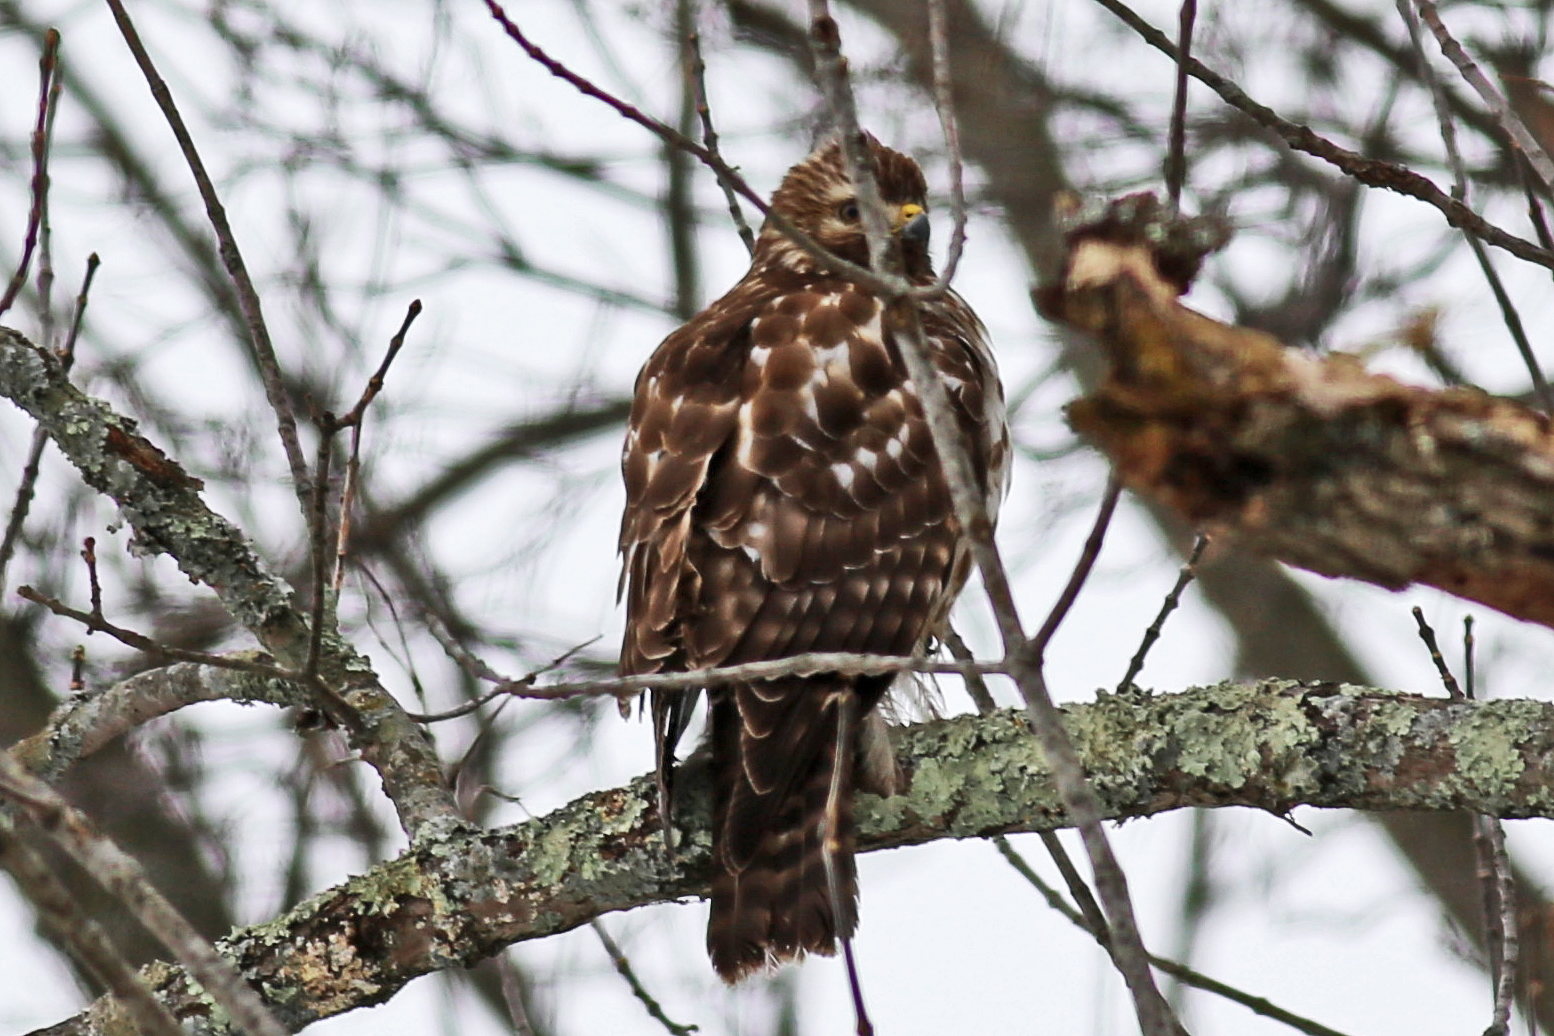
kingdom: Animalia
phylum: Chordata
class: Aves
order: Accipitriformes
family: Accipitridae
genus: Buteo
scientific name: Buteo lineatus
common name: Red-shouldered hawk
